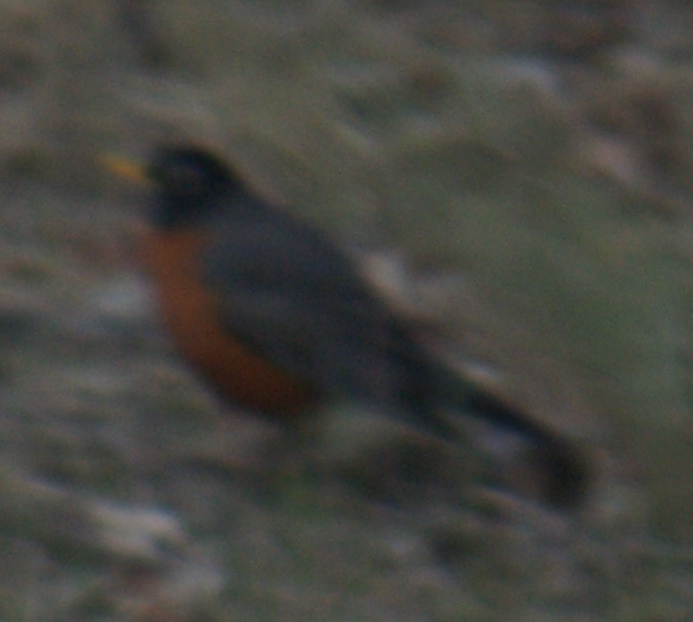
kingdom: Animalia
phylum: Chordata
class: Aves
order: Passeriformes
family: Turdidae
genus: Turdus
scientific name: Turdus migratorius
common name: American robin
